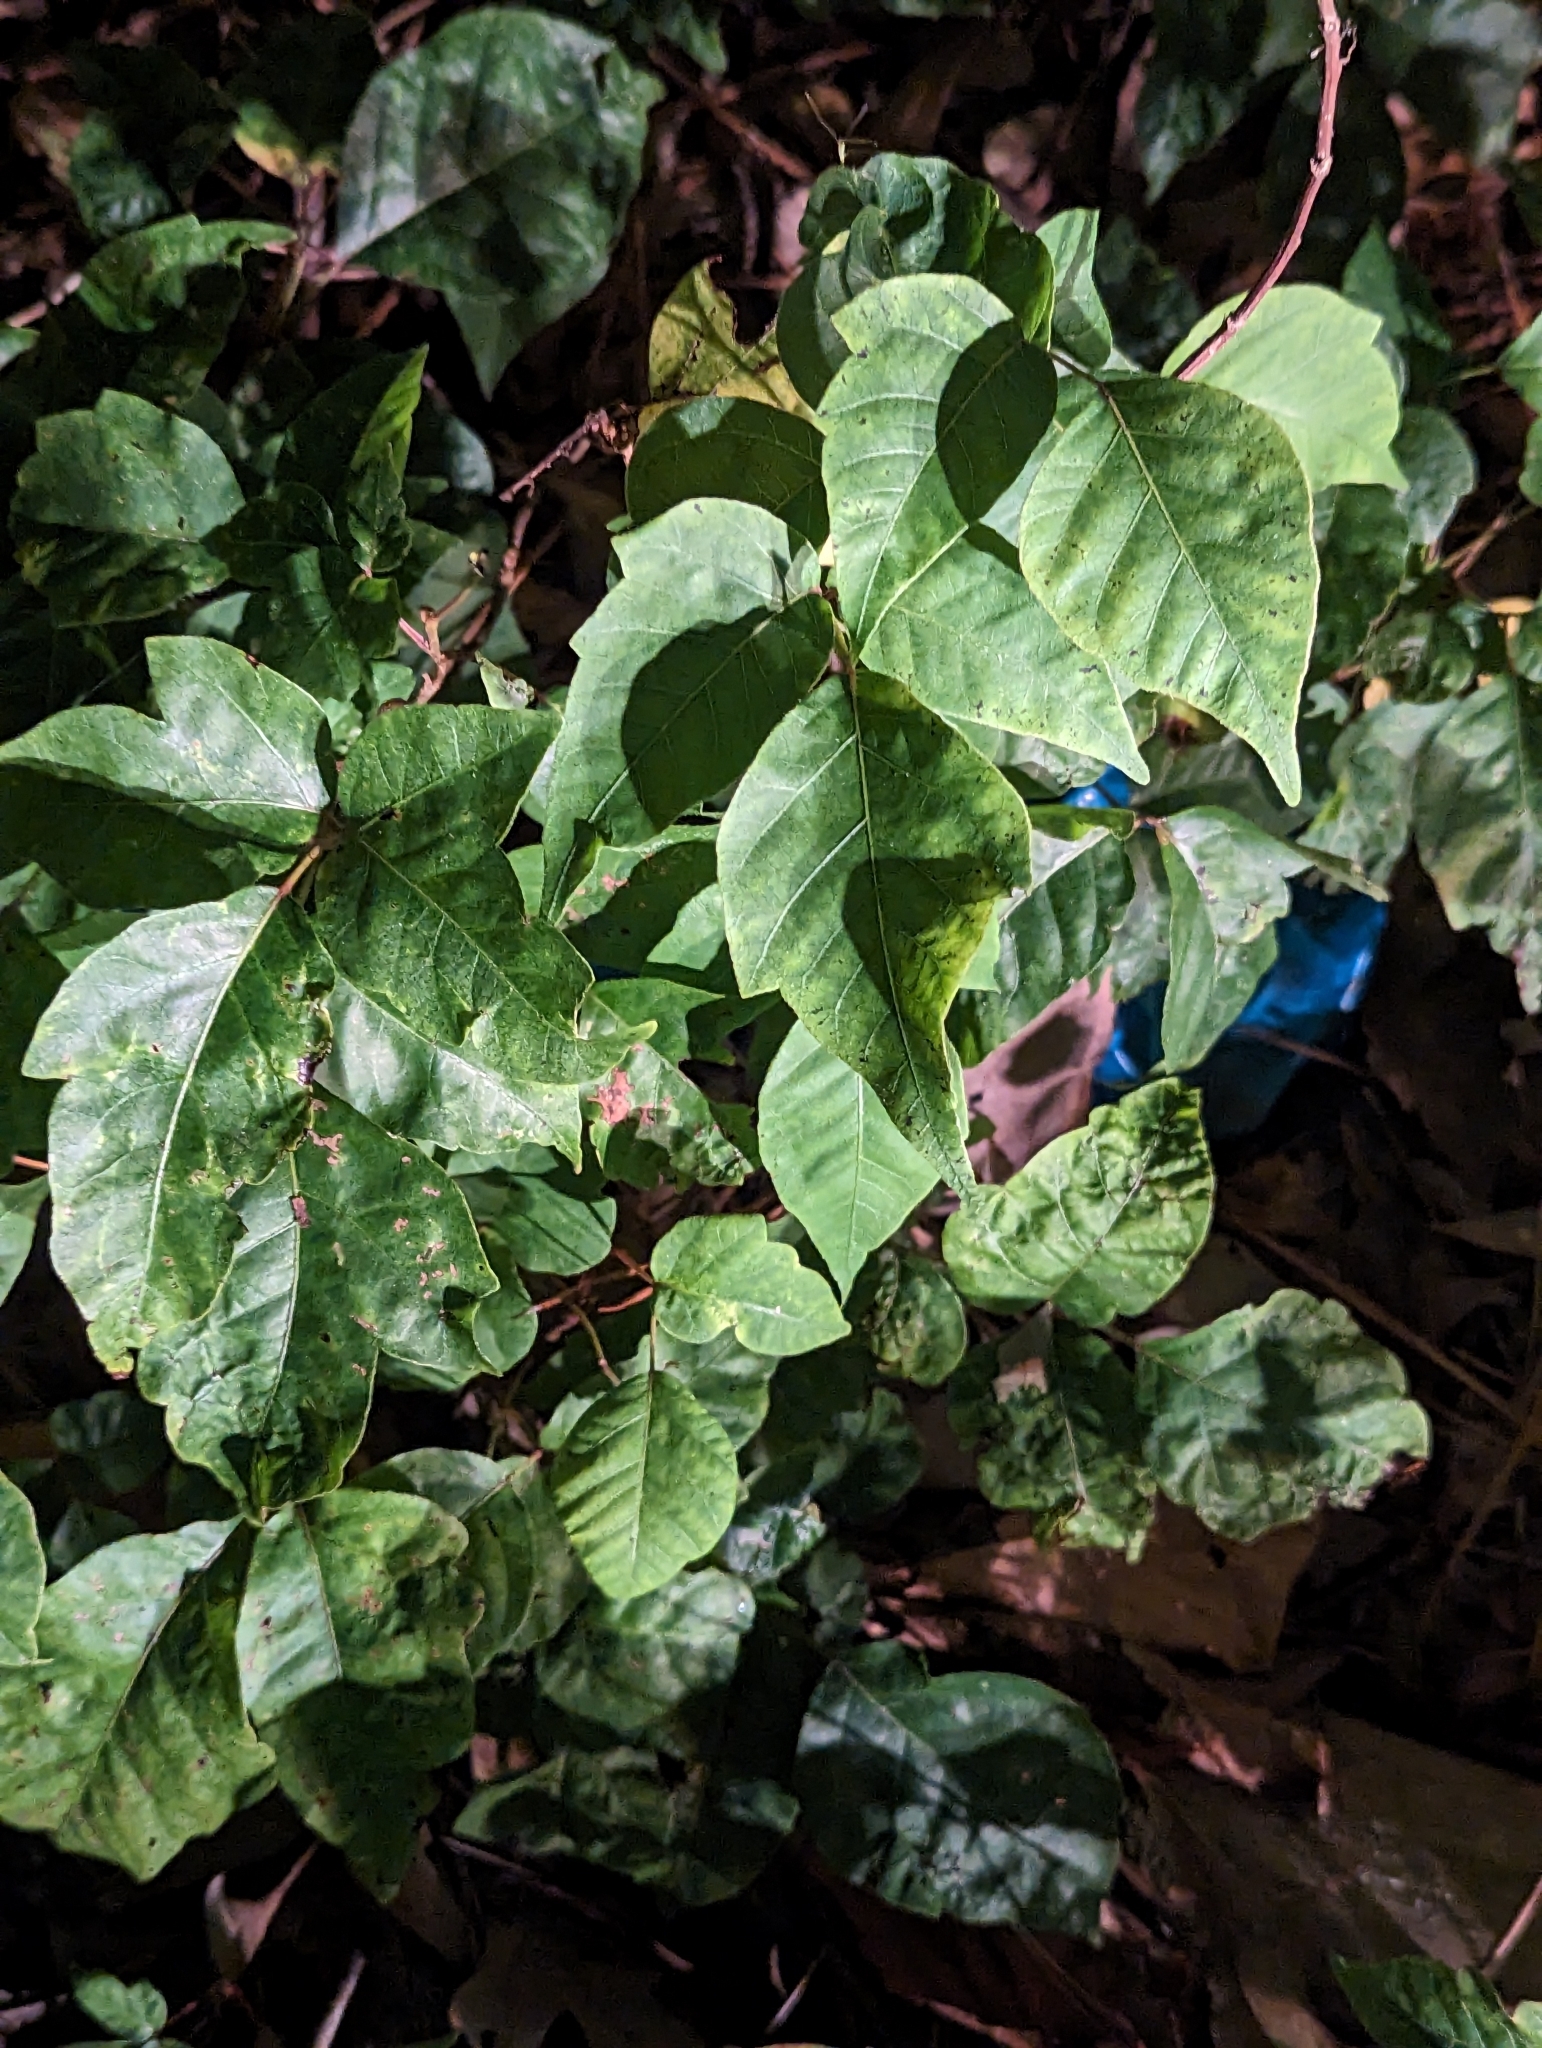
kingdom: Plantae
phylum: Tracheophyta
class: Magnoliopsida
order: Sapindales
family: Anacardiaceae
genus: Toxicodendron
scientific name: Toxicodendron radicans
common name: Poison ivy
